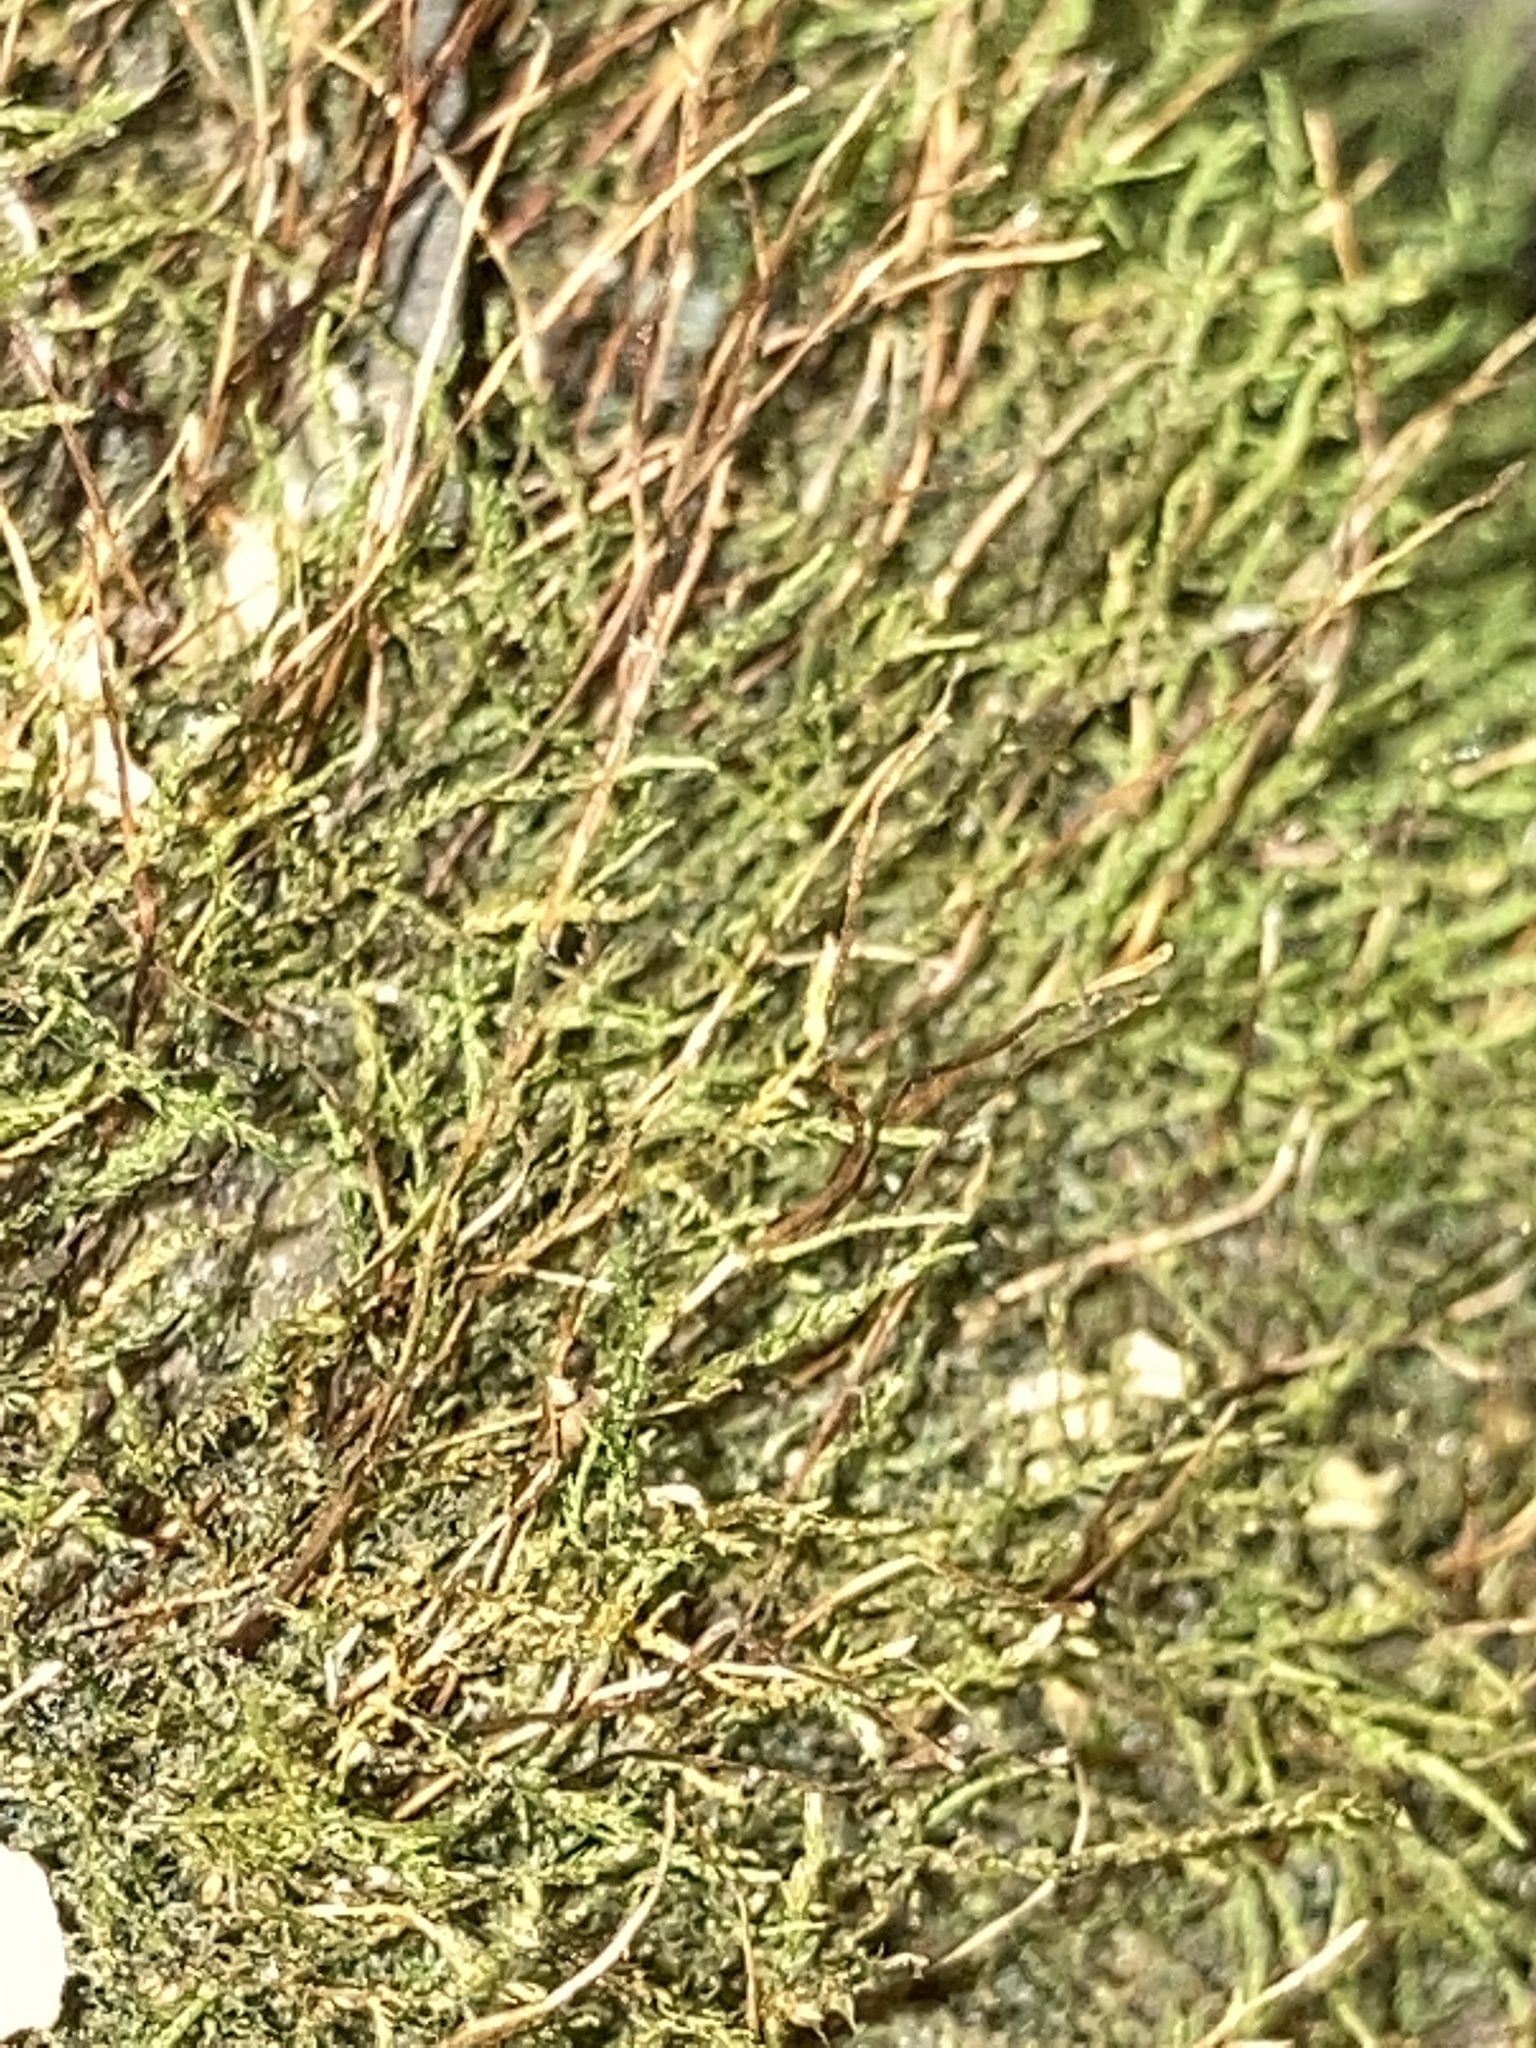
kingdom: Plantae
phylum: Bryophyta
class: Bryopsida
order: Hypnales
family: Amblystegiaceae
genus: Hygroamblystegium
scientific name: Hygroamblystegium varium
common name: Willow feather-moss
